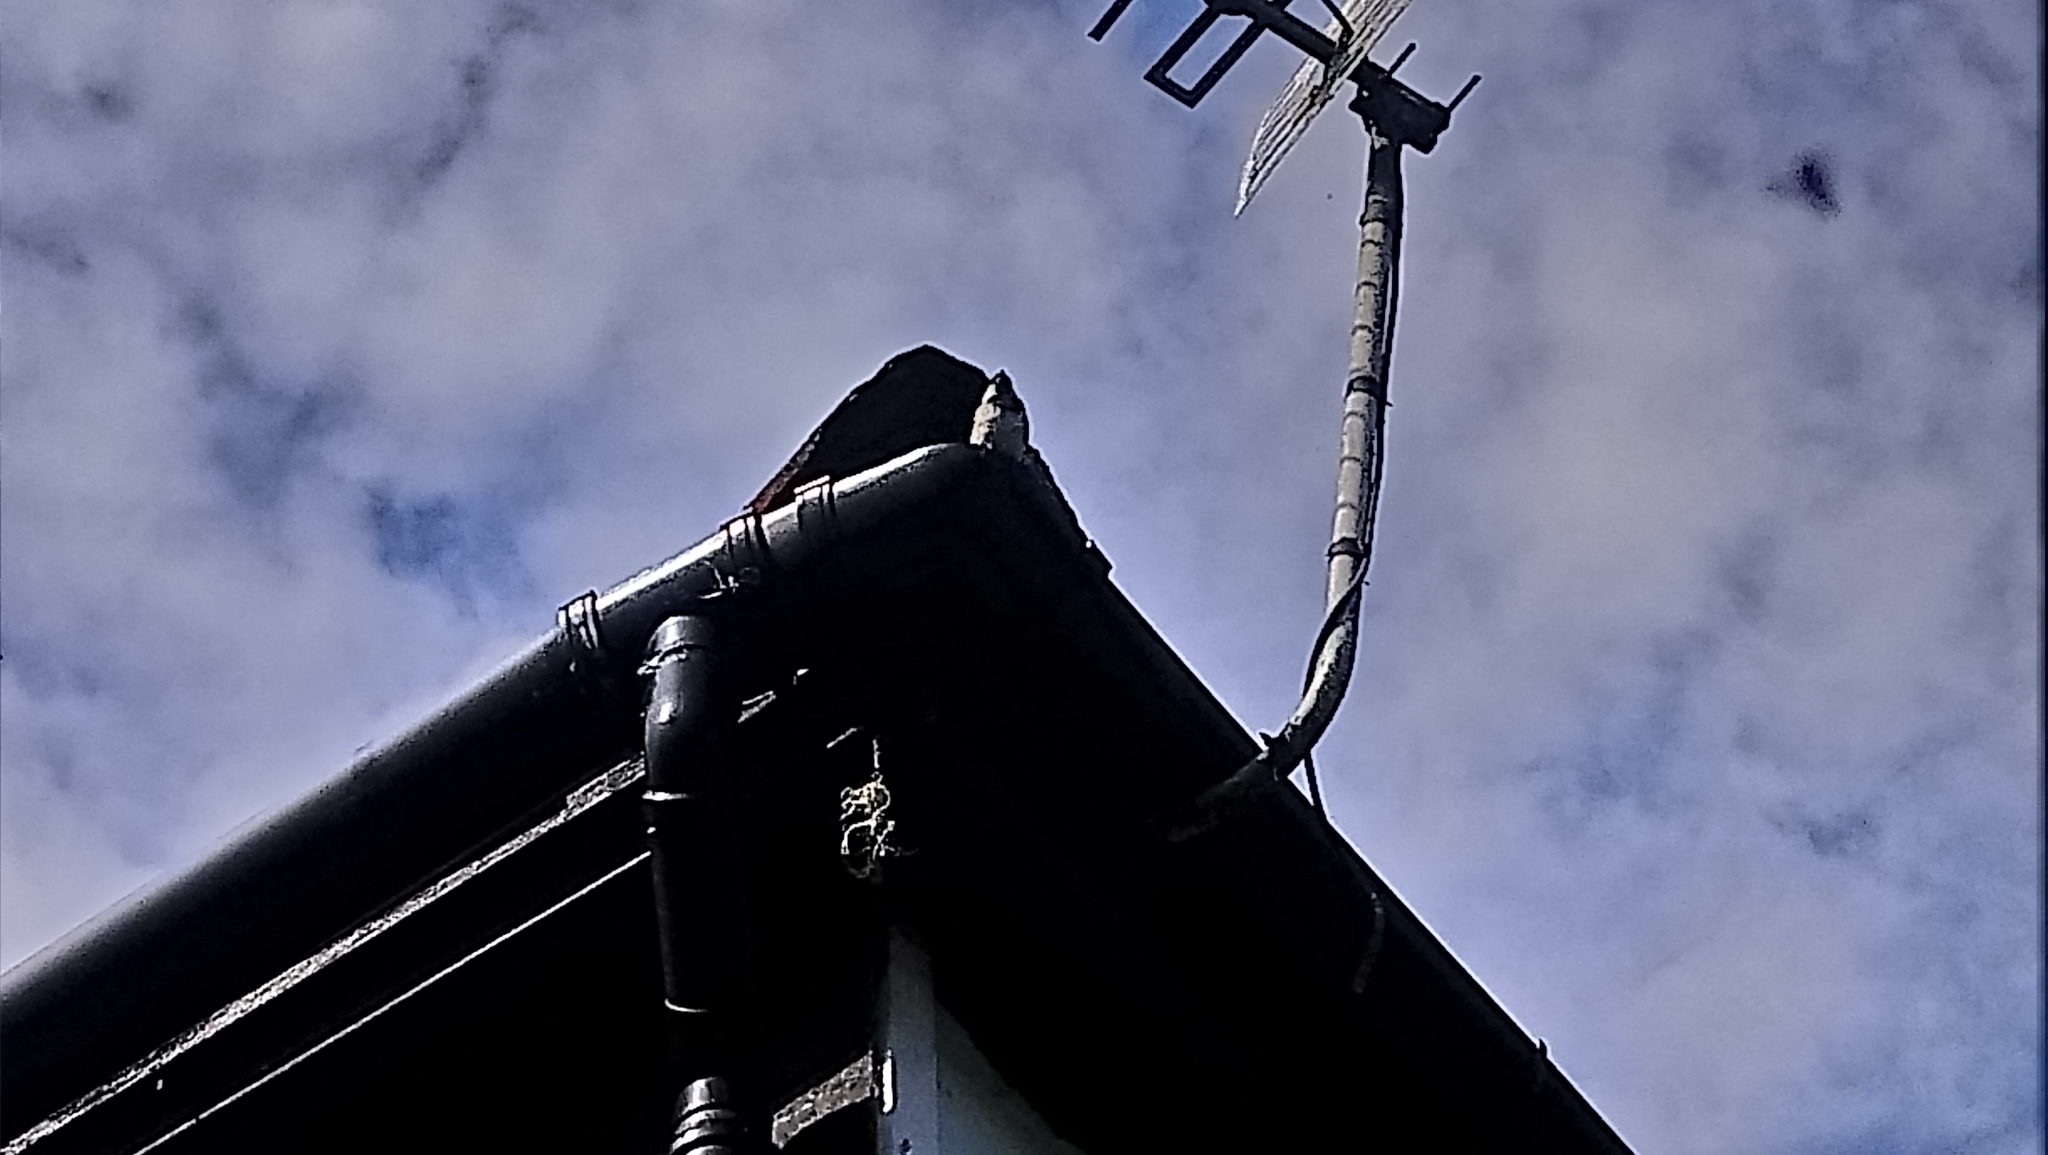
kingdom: Animalia
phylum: Chordata
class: Aves
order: Passeriformes
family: Passeridae
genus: Passer
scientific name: Passer domesticus
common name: House sparrow
